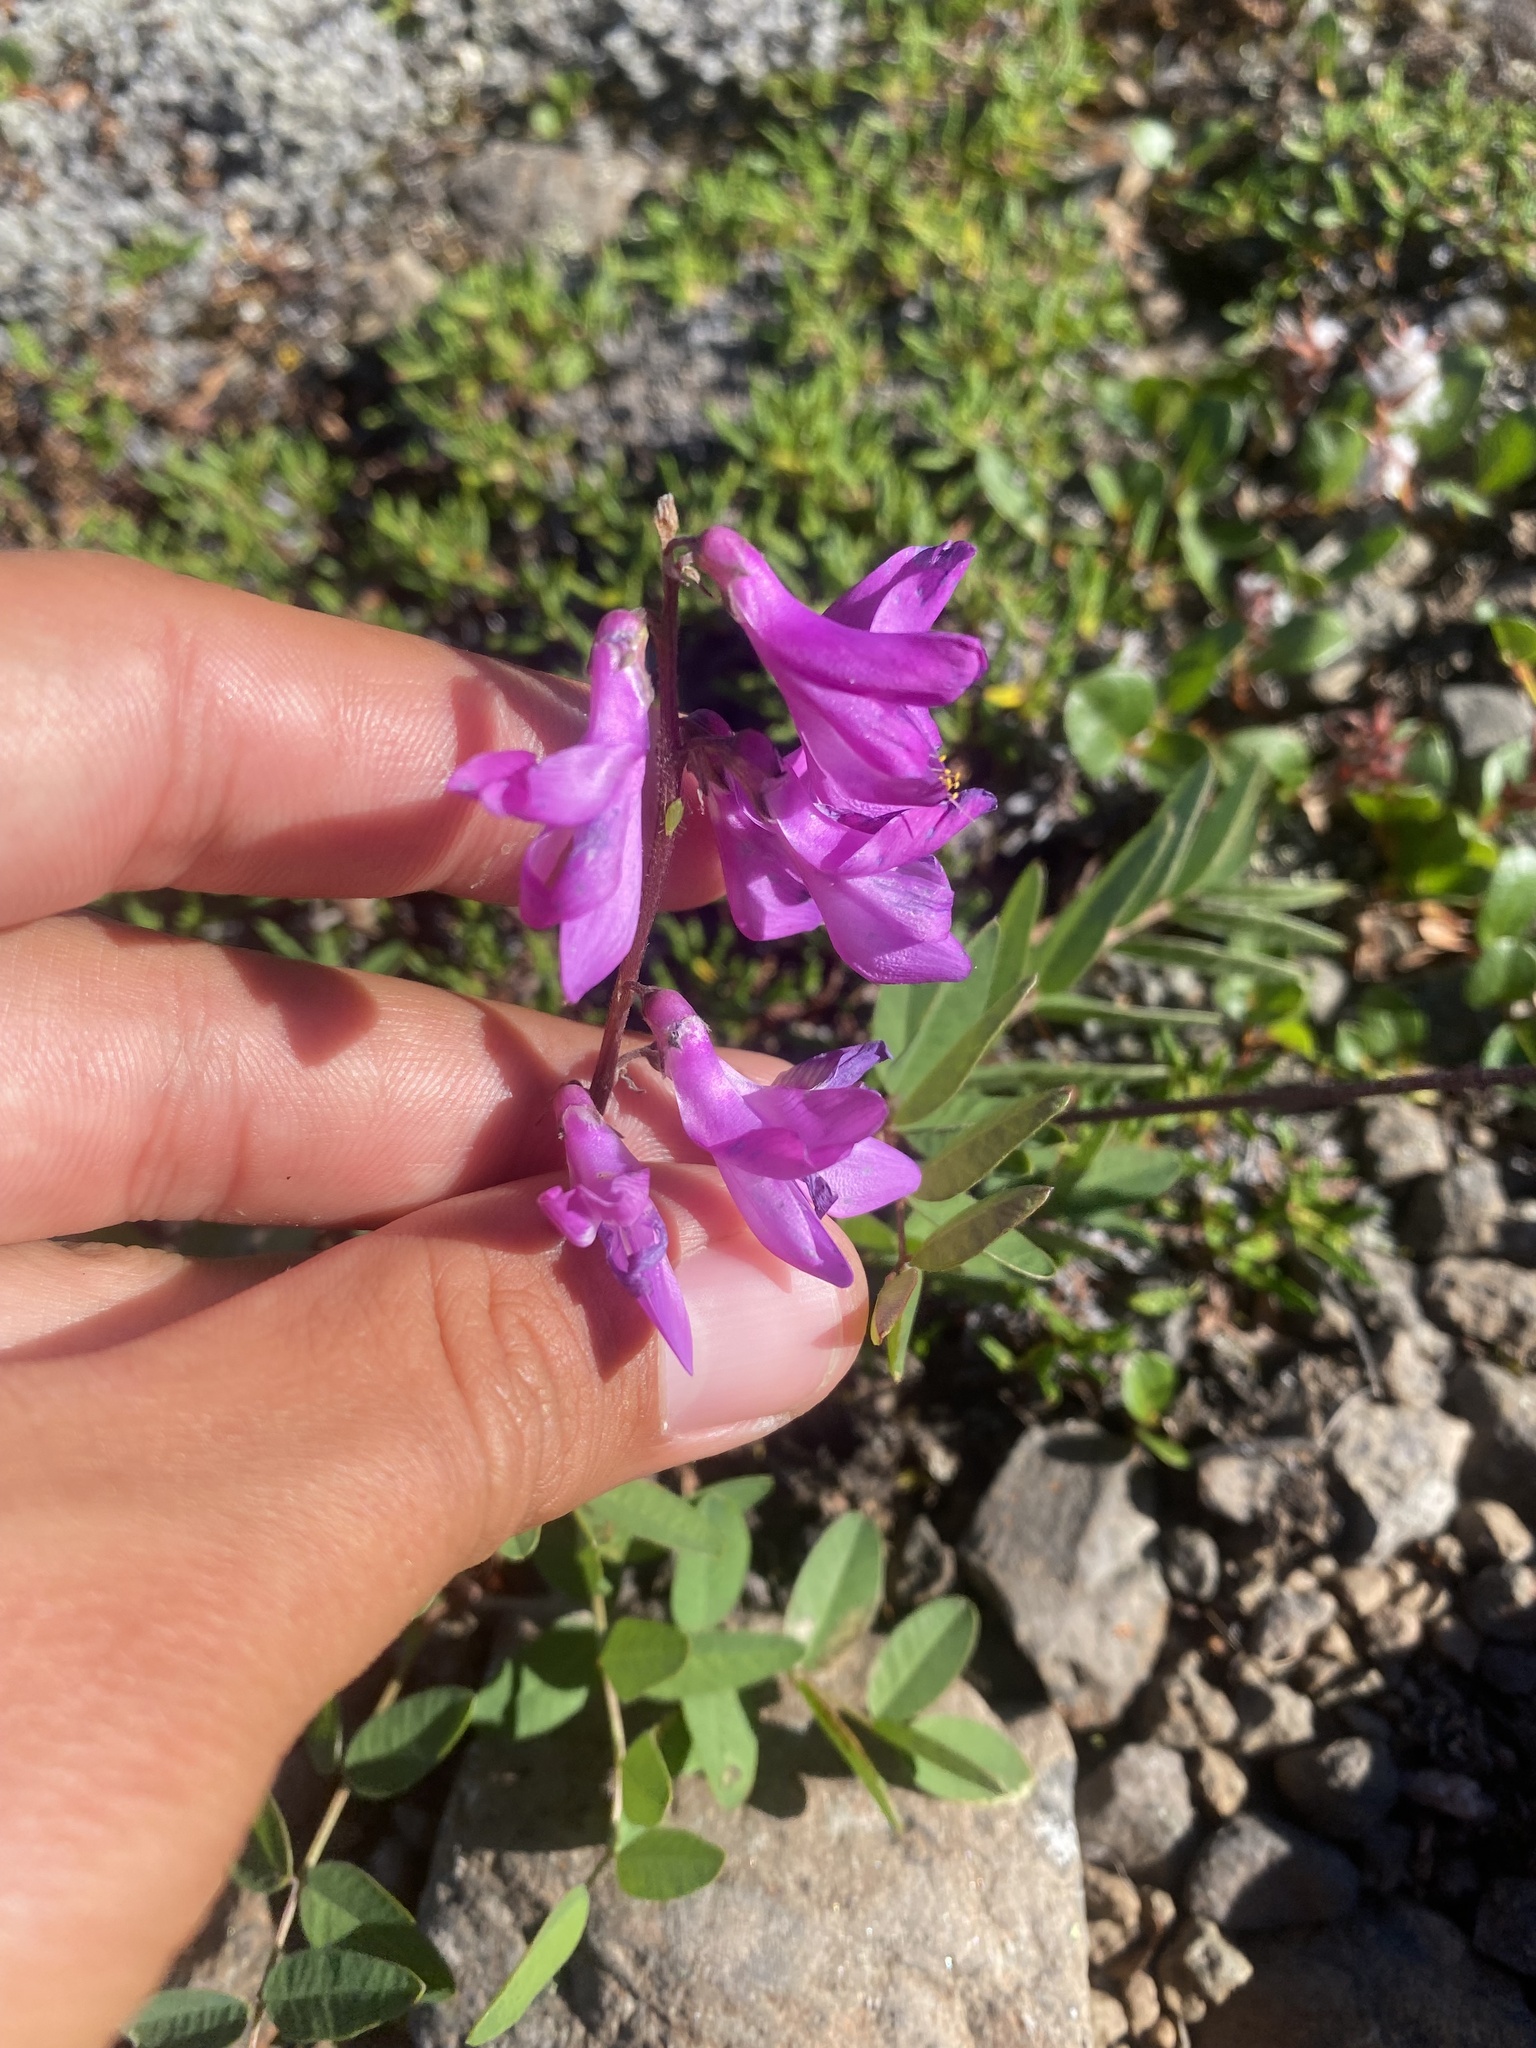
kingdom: Plantae
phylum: Tracheophyta
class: Magnoliopsida
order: Fabales
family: Fabaceae
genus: Hedysarum
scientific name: Hedysarum hedysaroides
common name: Alpine french-honeysuckle
